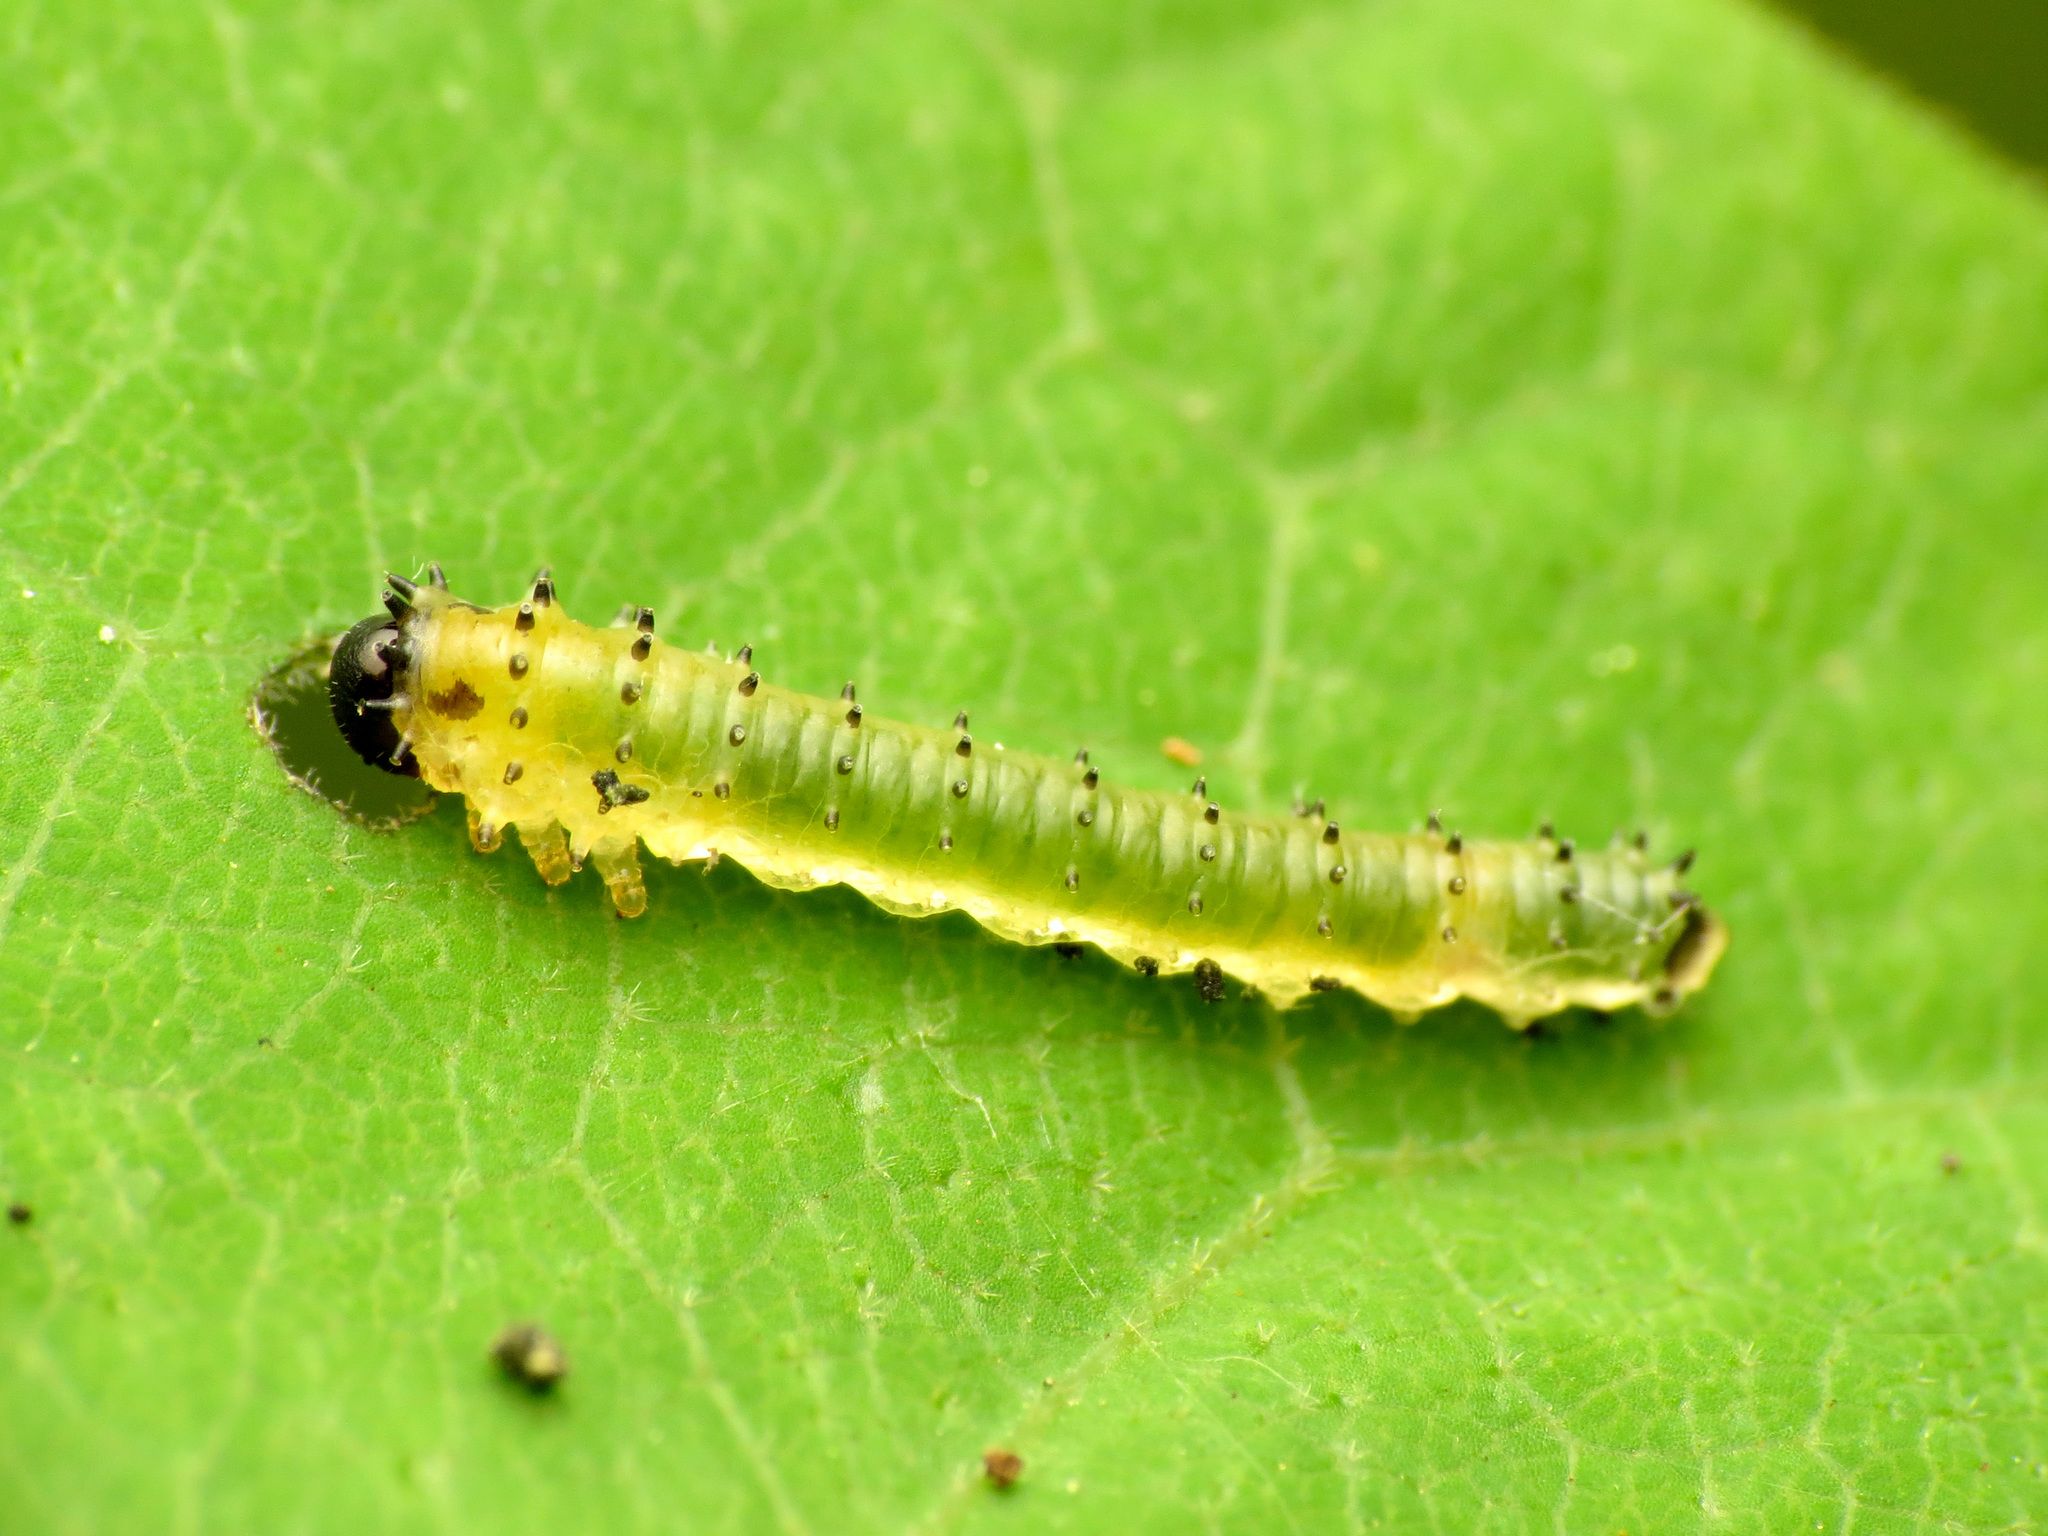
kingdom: Animalia
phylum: Arthropoda
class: Insecta
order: Hymenoptera
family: Argidae
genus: Atomacera
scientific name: Atomacera
